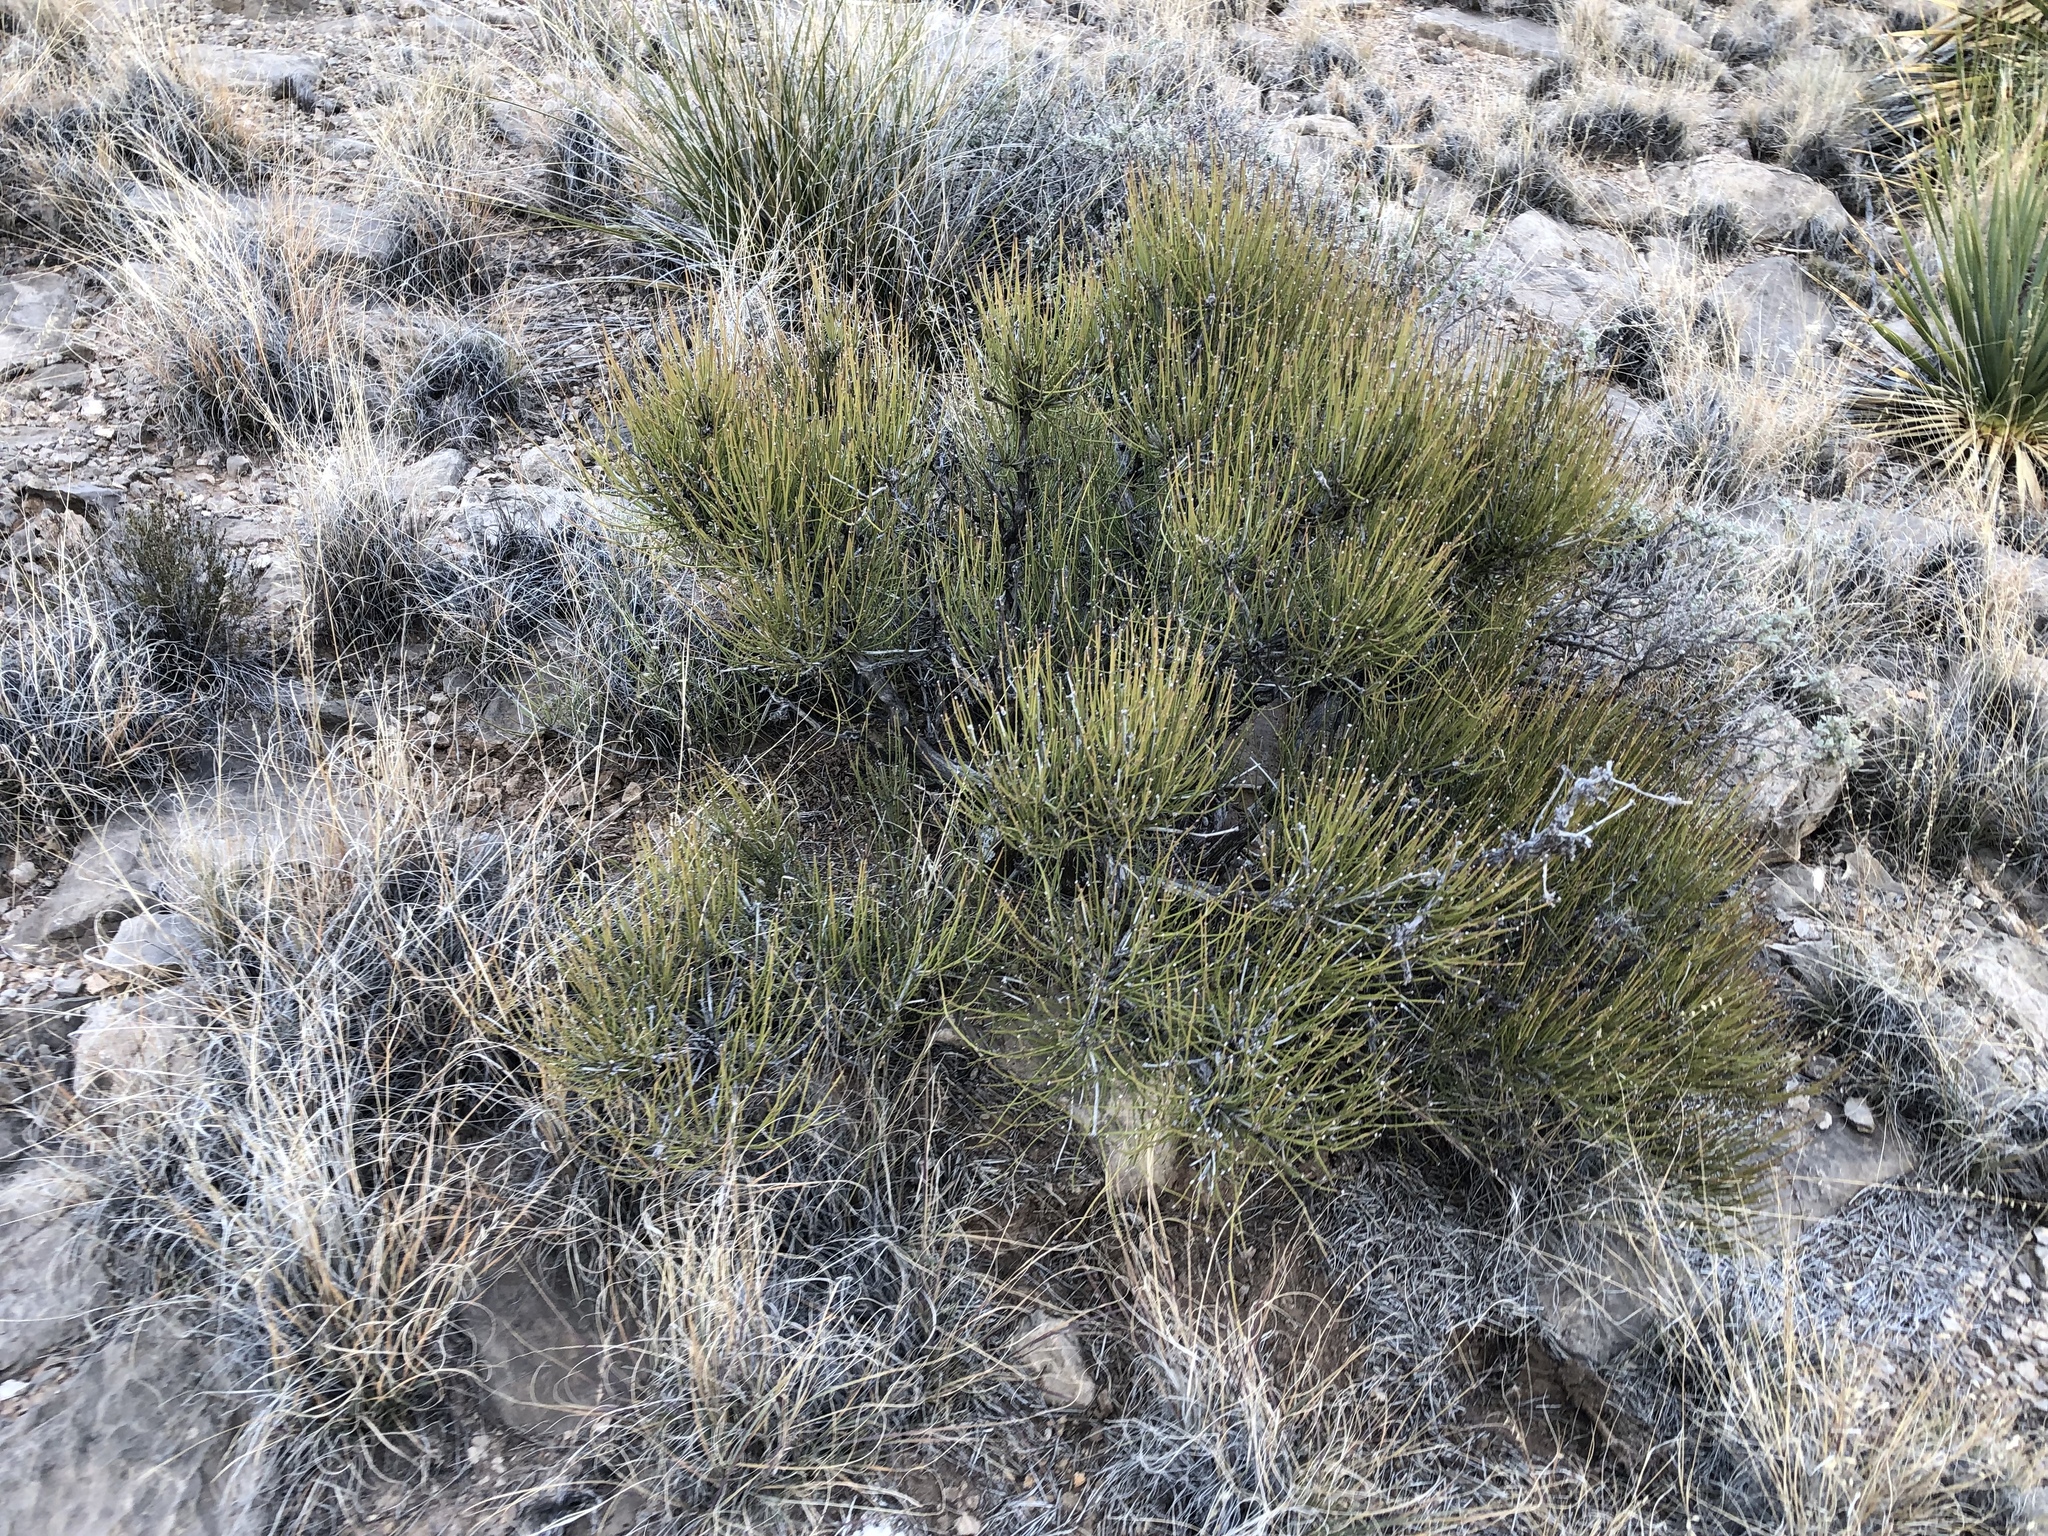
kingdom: Plantae
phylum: Tracheophyta
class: Gnetopsida
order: Ephedrales
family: Ephedraceae
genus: Ephedra
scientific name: Ephedra aspera
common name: Boundary ephedra
